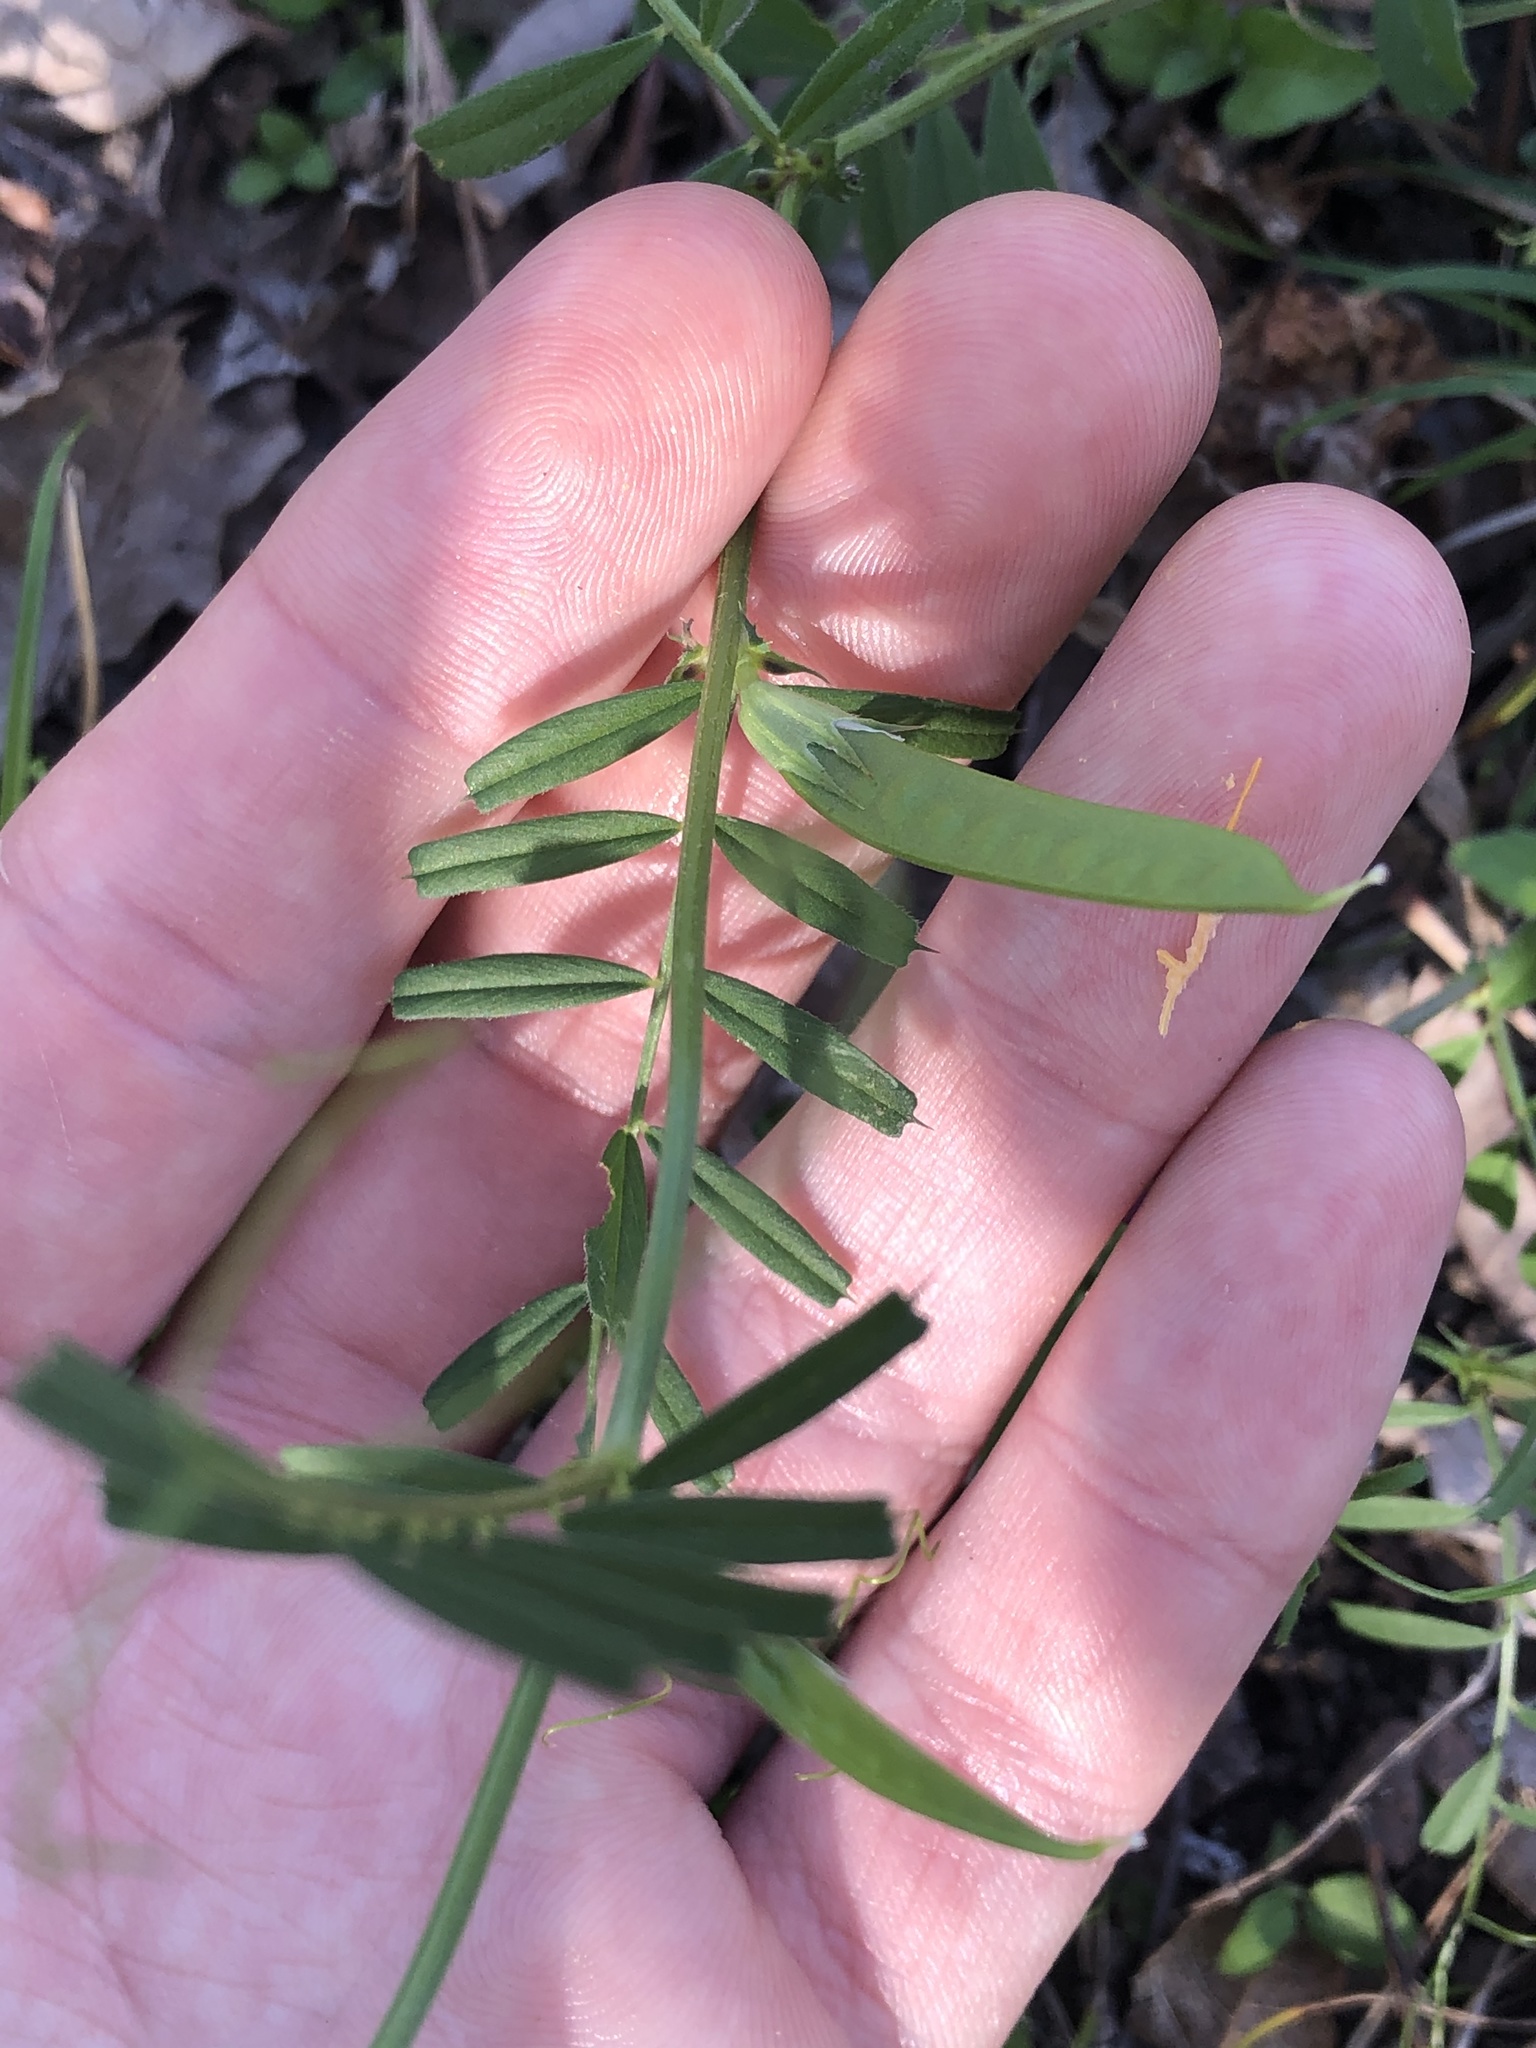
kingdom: Plantae
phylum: Tracheophyta
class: Magnoliopsida
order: Fabales
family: Fabaceae
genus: Vicia
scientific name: Vicia sativa
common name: Garden vetch
